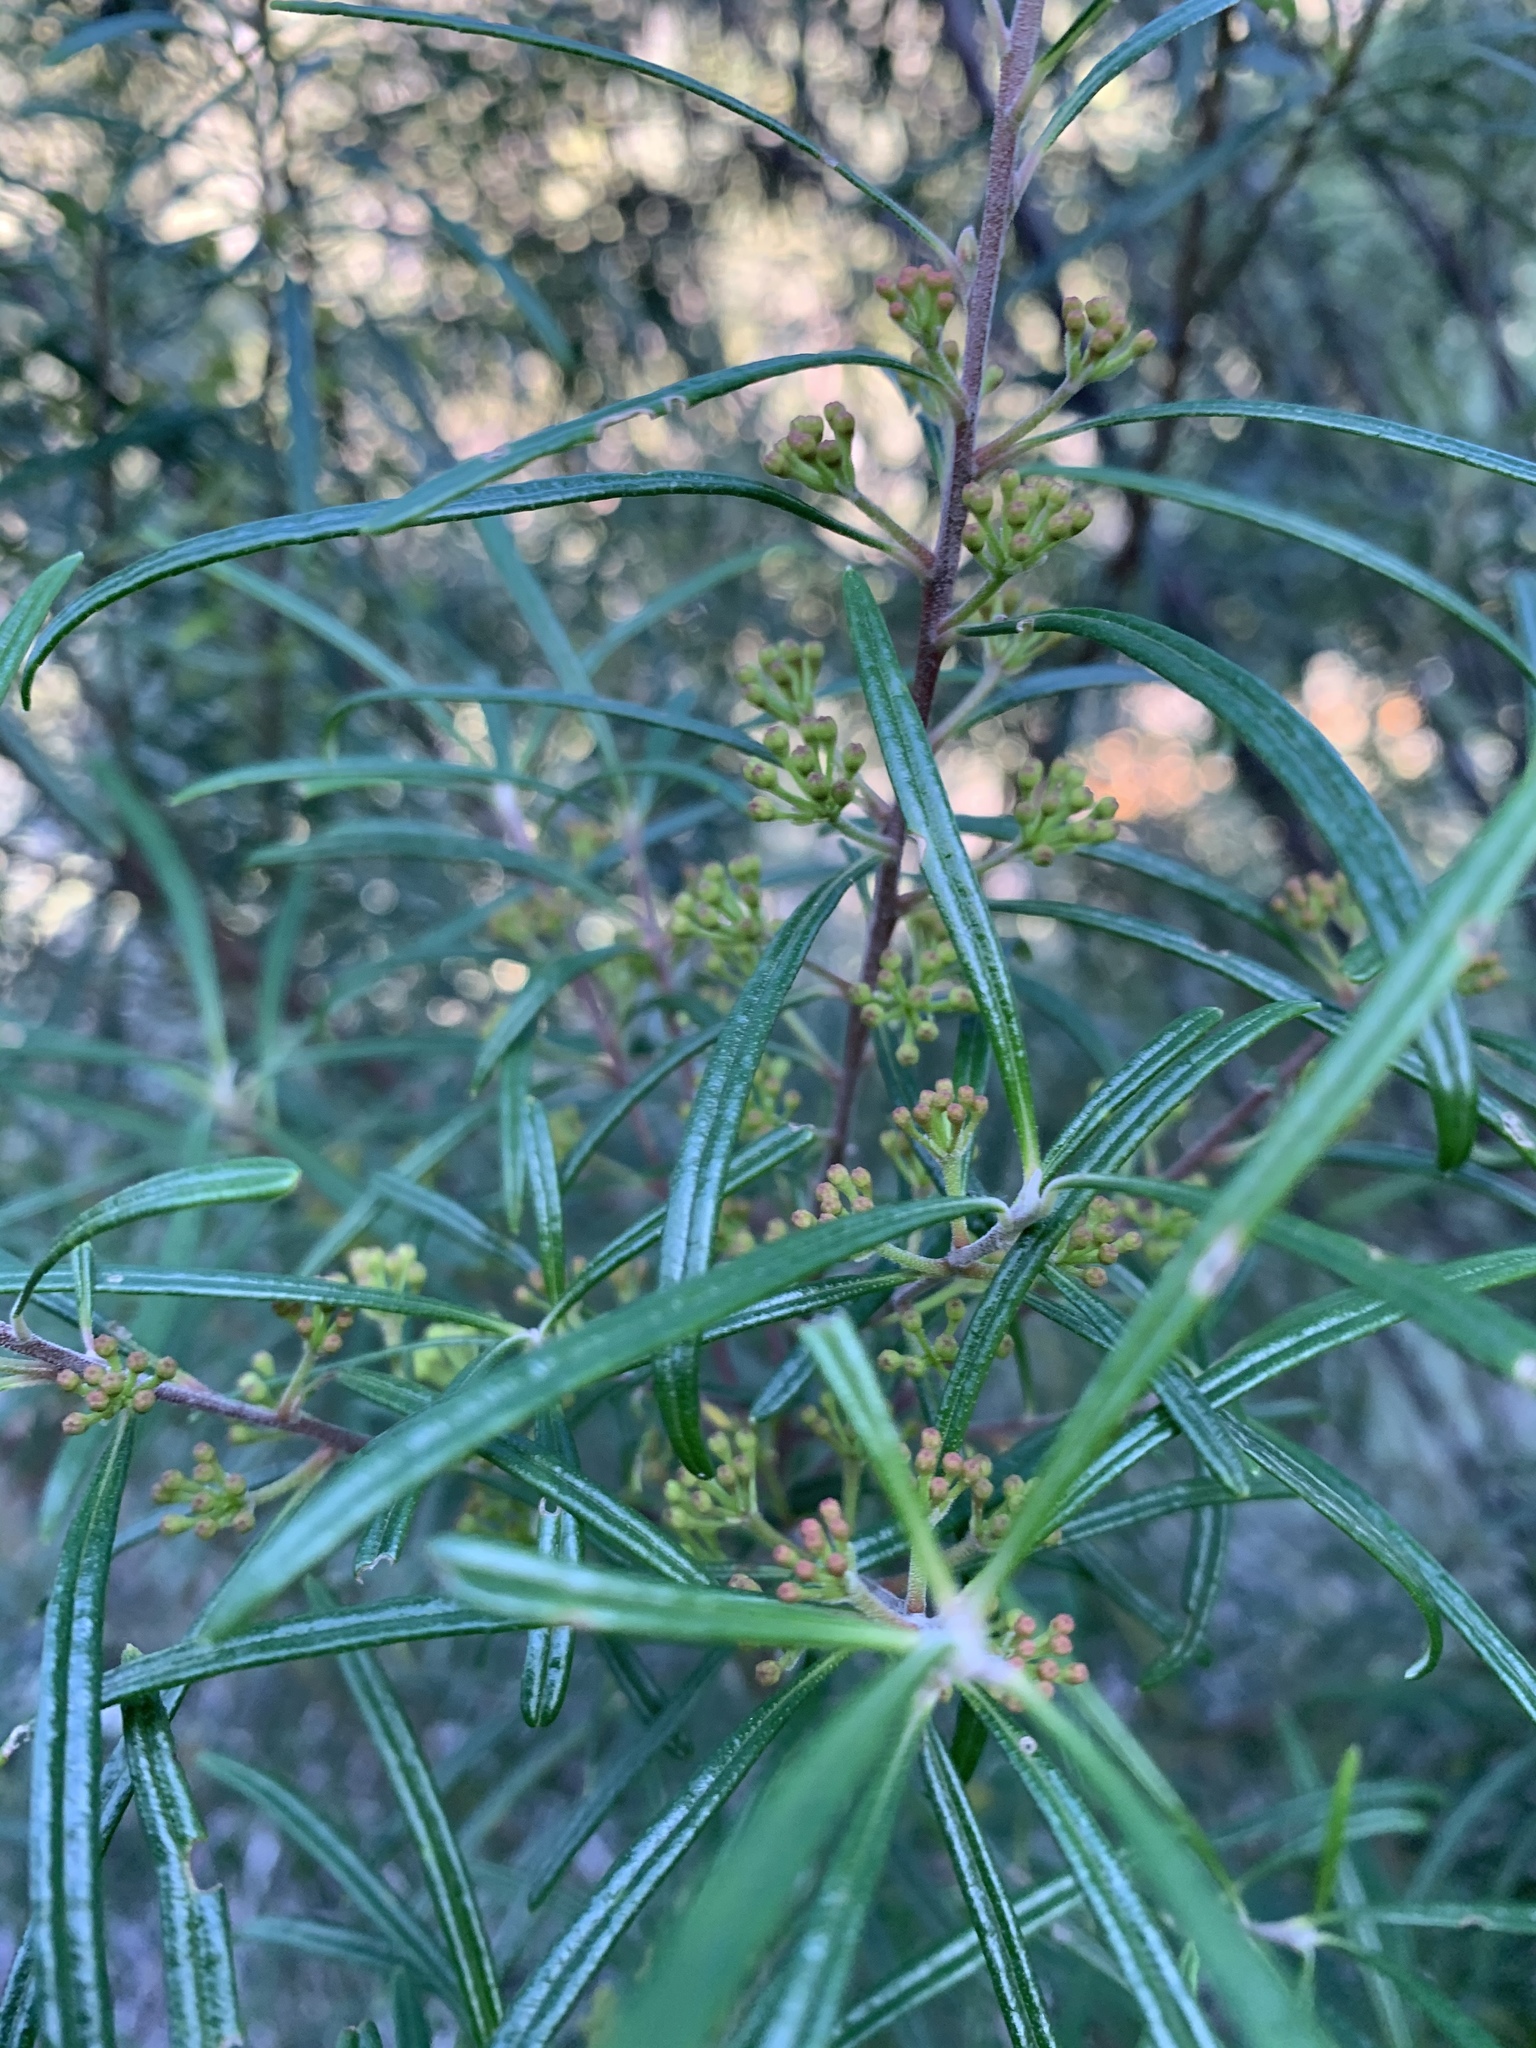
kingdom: Plantae
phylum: Tracheophyta
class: Magnoliopsida
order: Sapindales
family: Rutaceae
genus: Leionema
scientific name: Leionema dentatum
